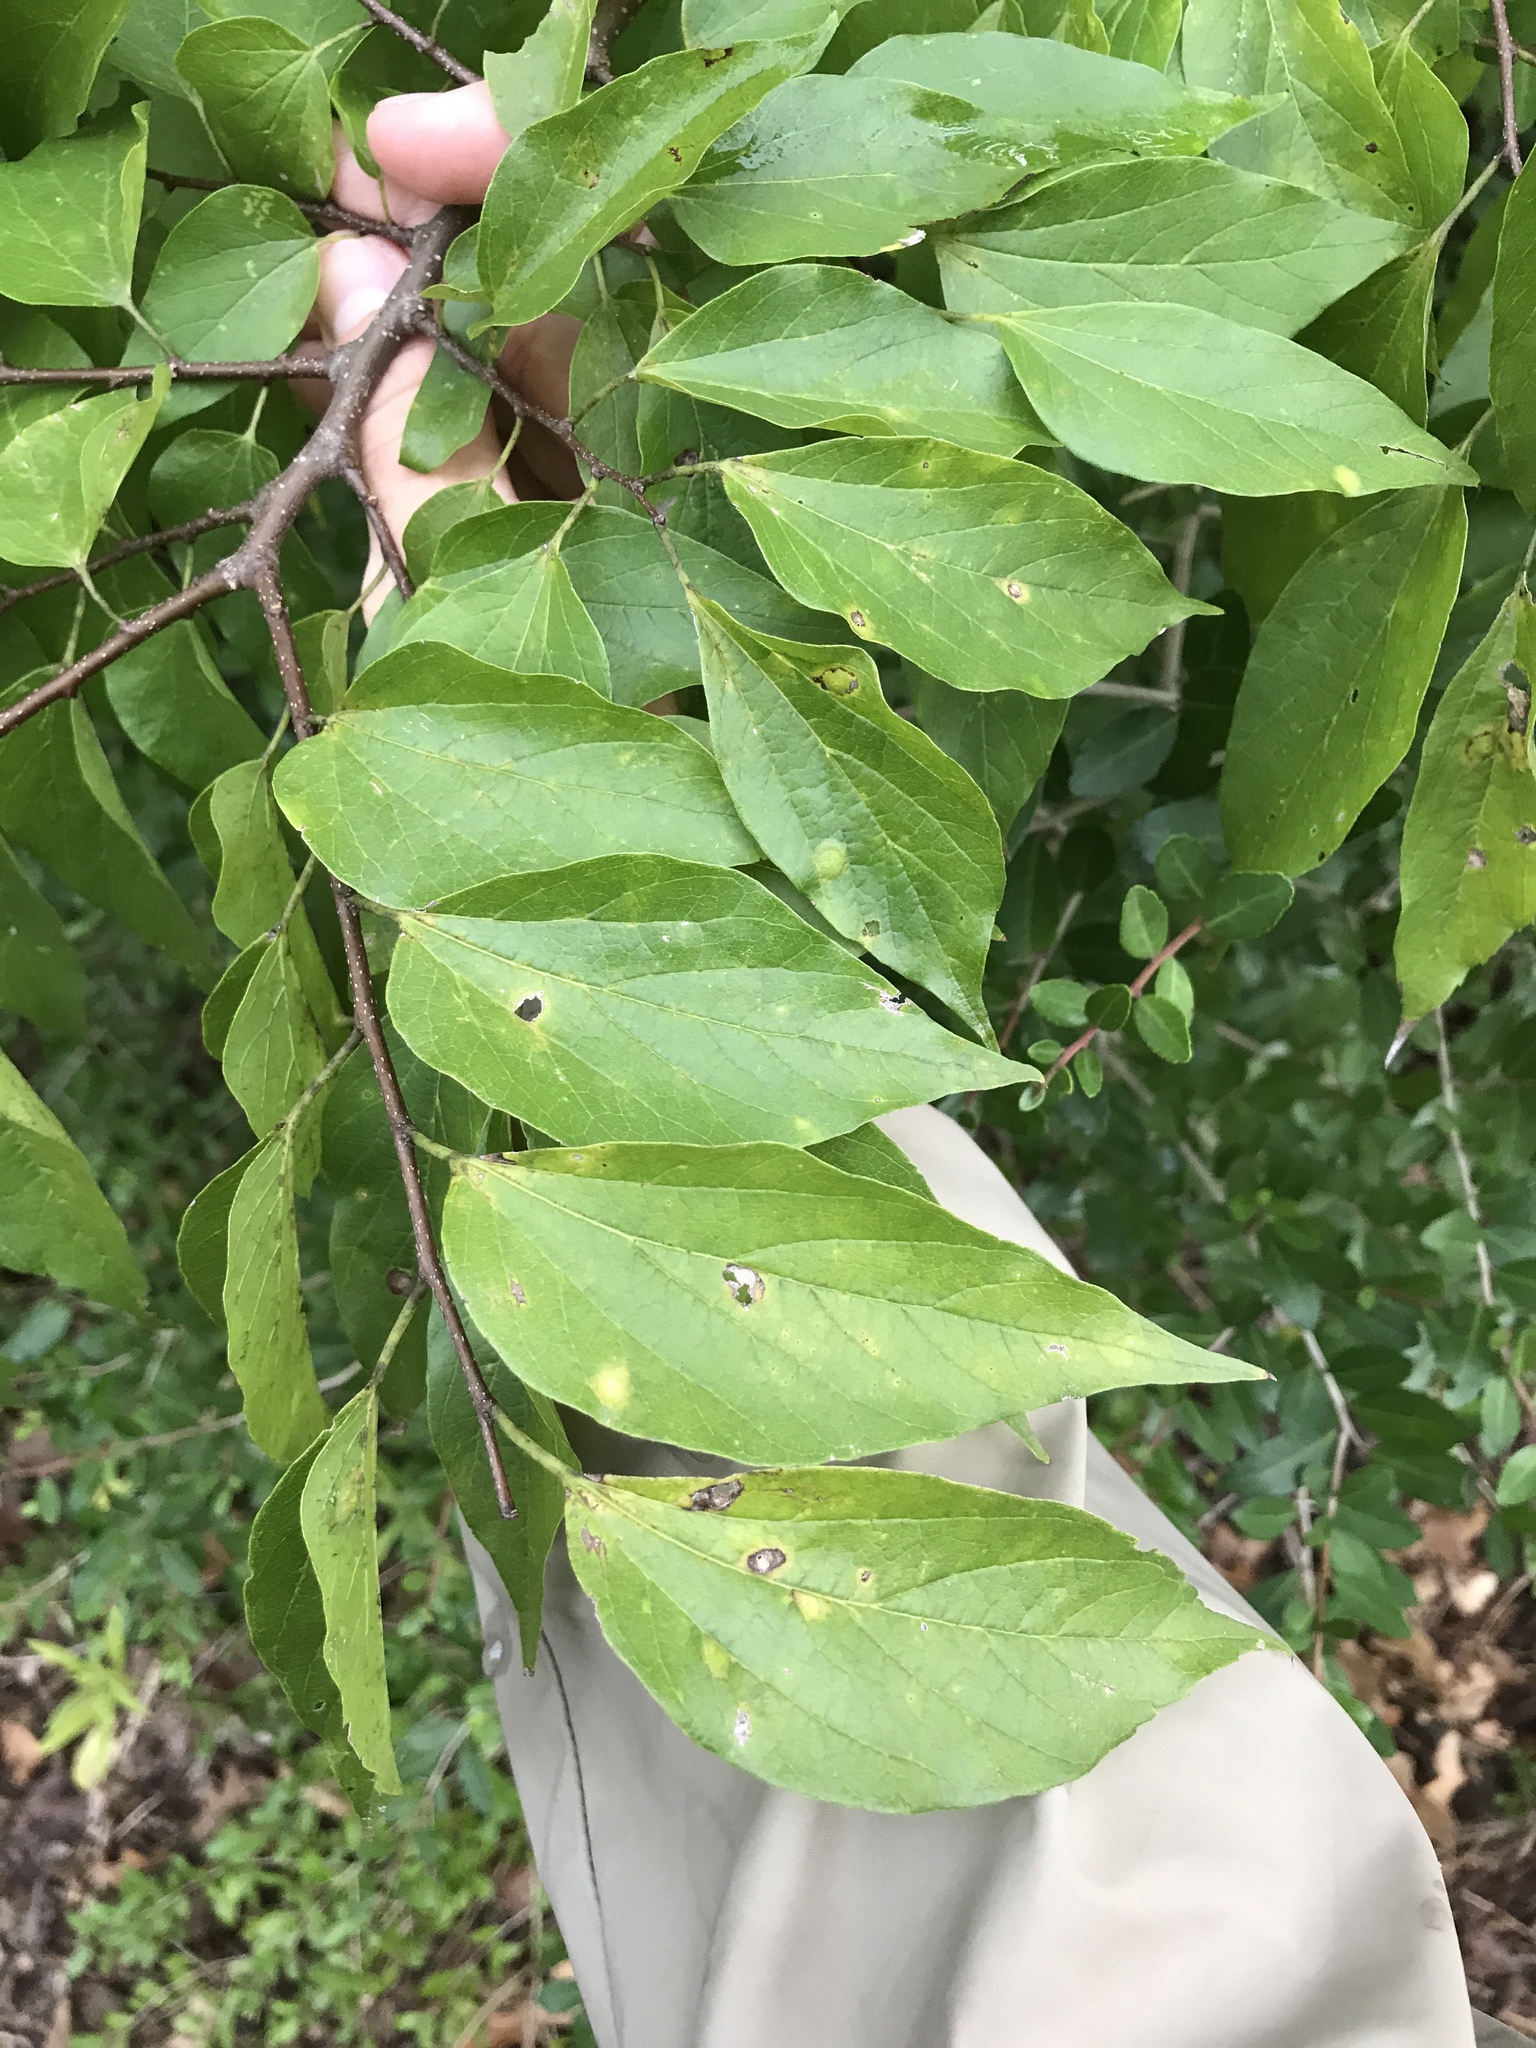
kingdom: Plantae
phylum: Tracheophyta
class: Magnoliopsida
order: Rosales
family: Cannabaceae
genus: Celtis
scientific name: Celtis laevigata
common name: Sugarberry
